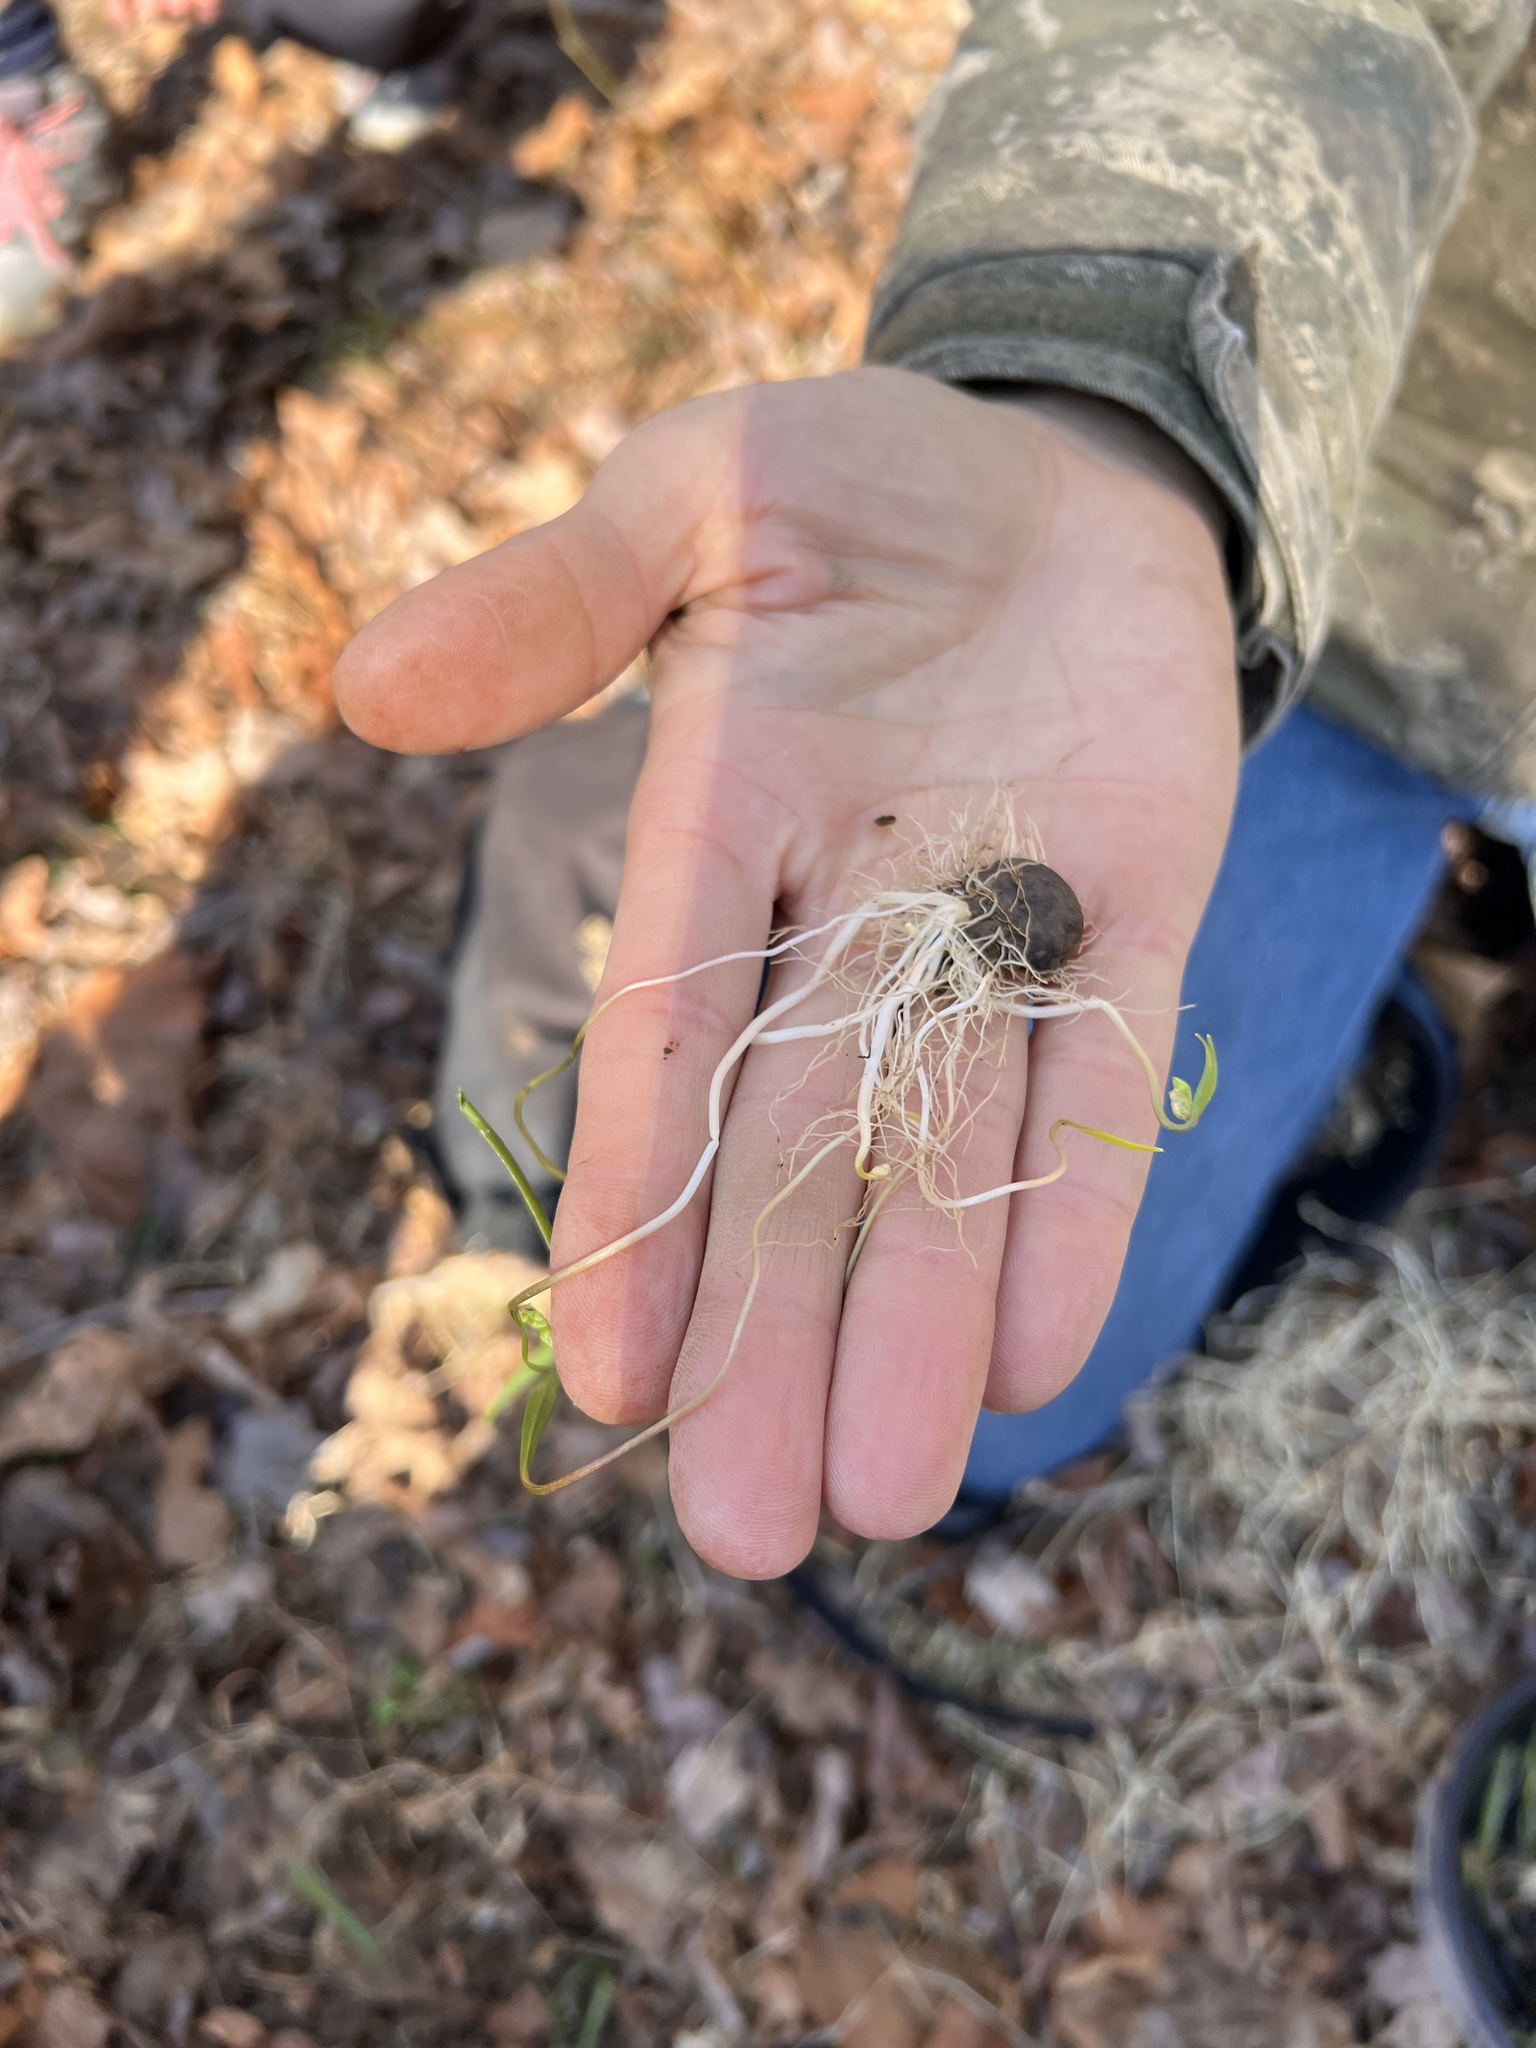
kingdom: Plantae
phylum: Tracheophyta
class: Magnoliopsida
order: Caryophyllales
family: Montiaceae
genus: Claytonia
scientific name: Claytonia virginica
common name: Virginia springbeauty
